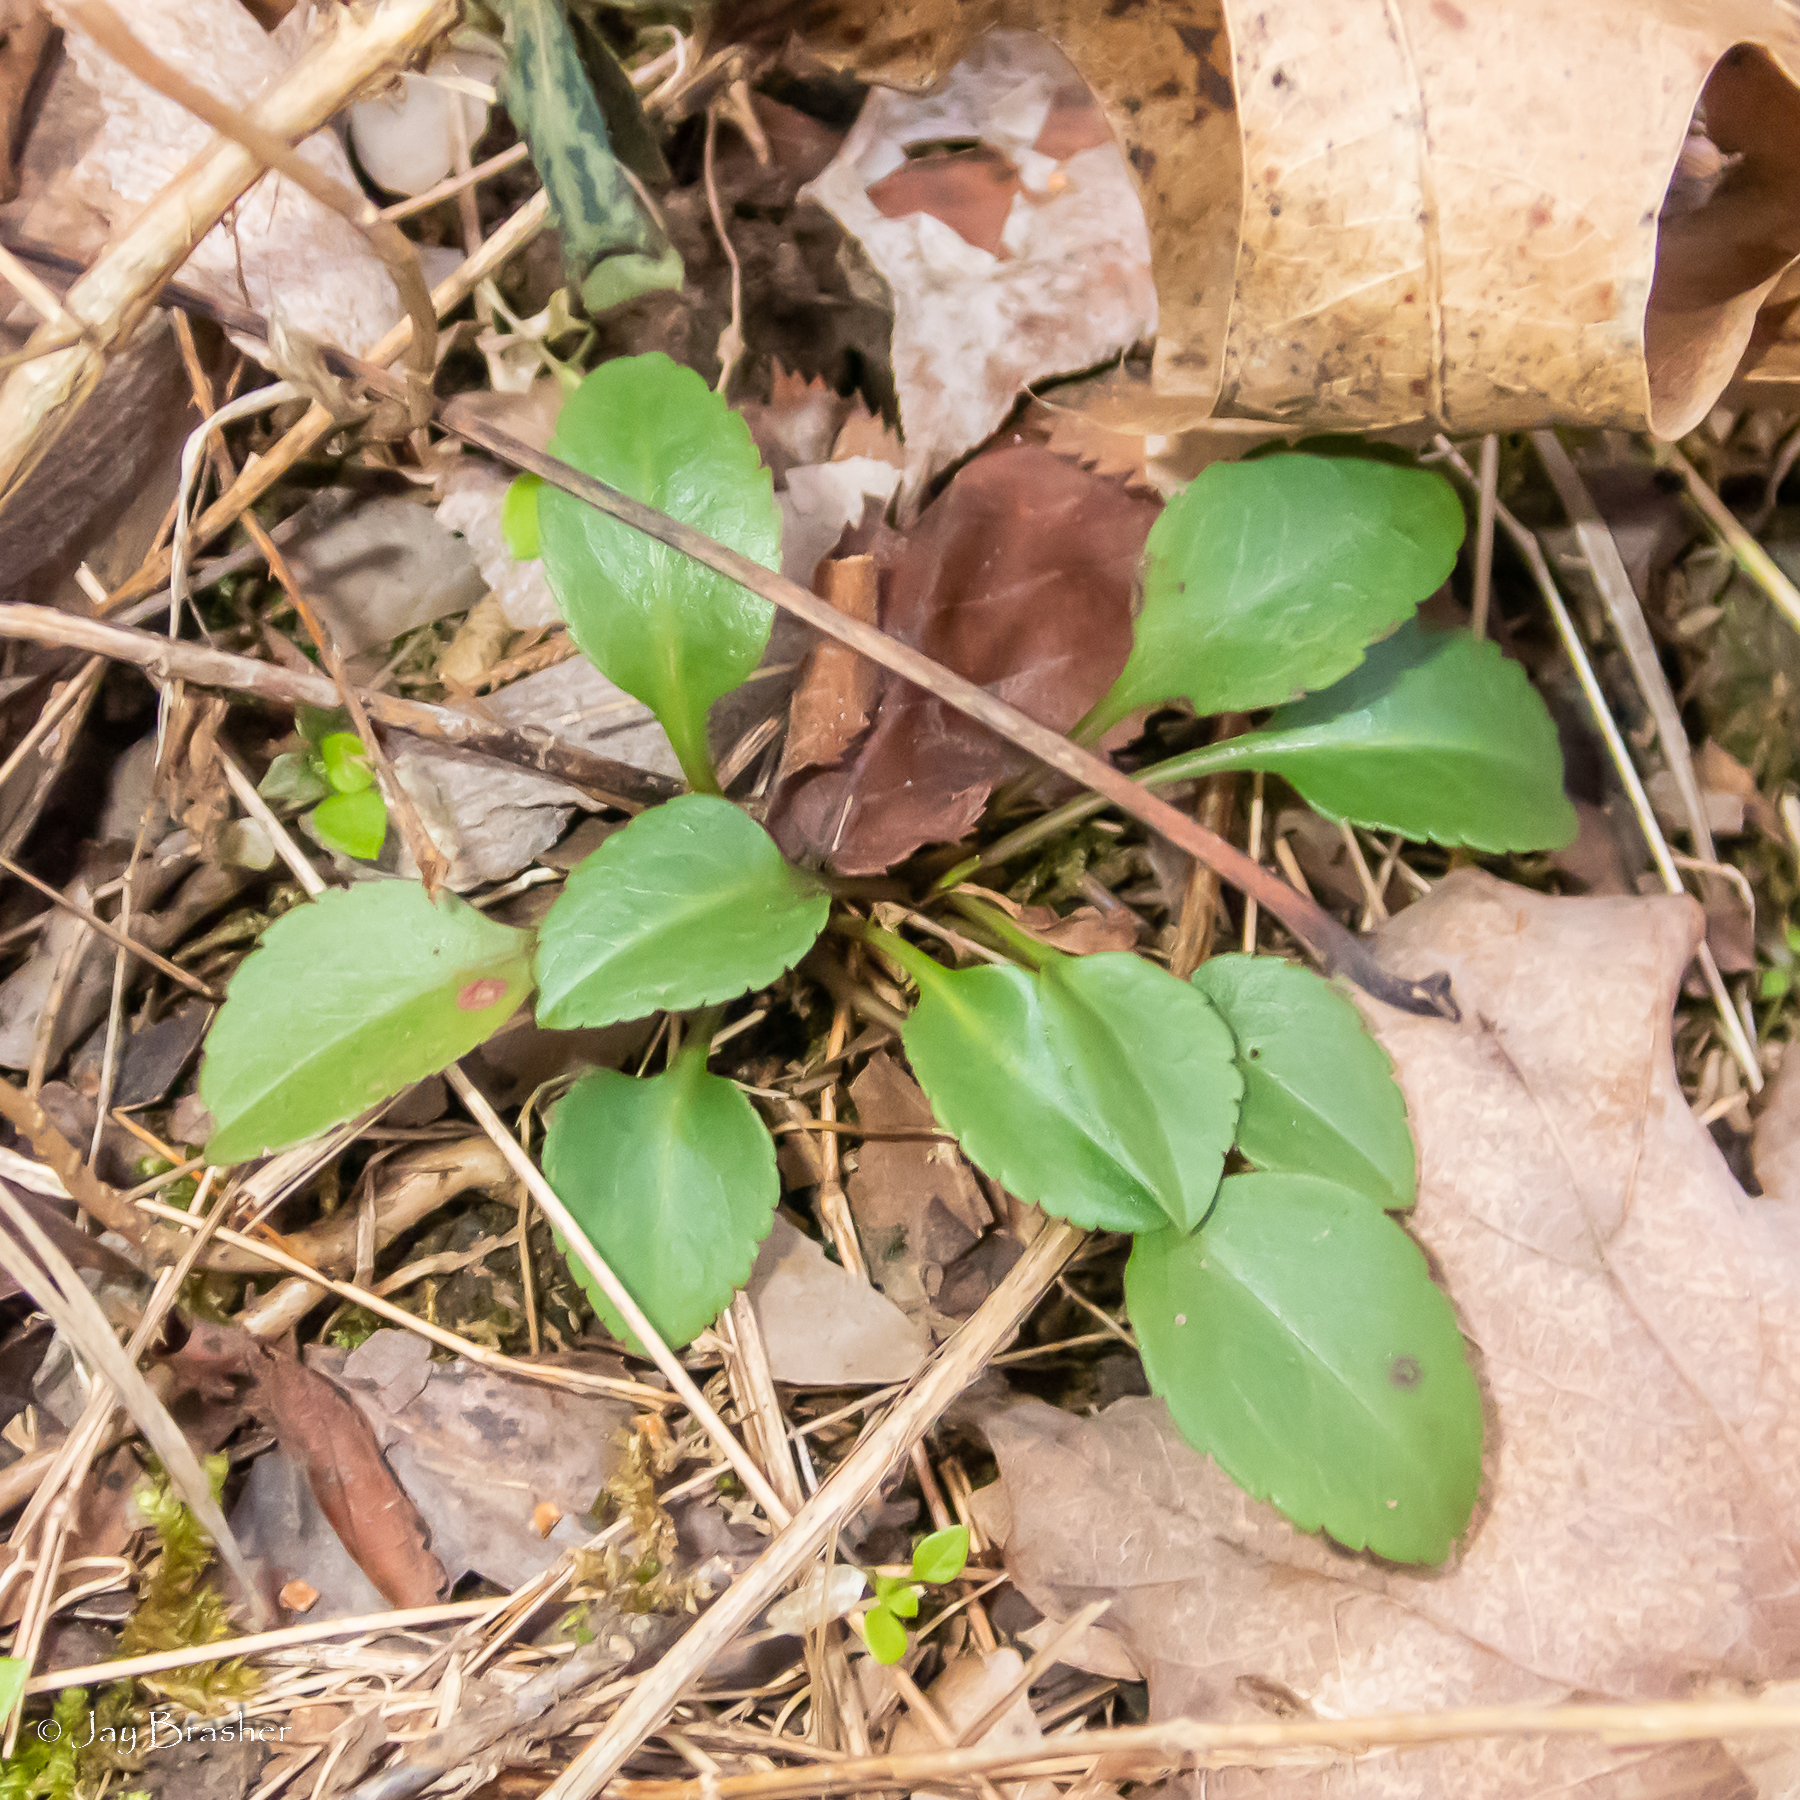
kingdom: Plantae
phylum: Tracheophyta
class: Magnoliopsida
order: Asterales
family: Asteraceae
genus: Packera
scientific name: Packera obovata
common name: Round-leaf ragwort
